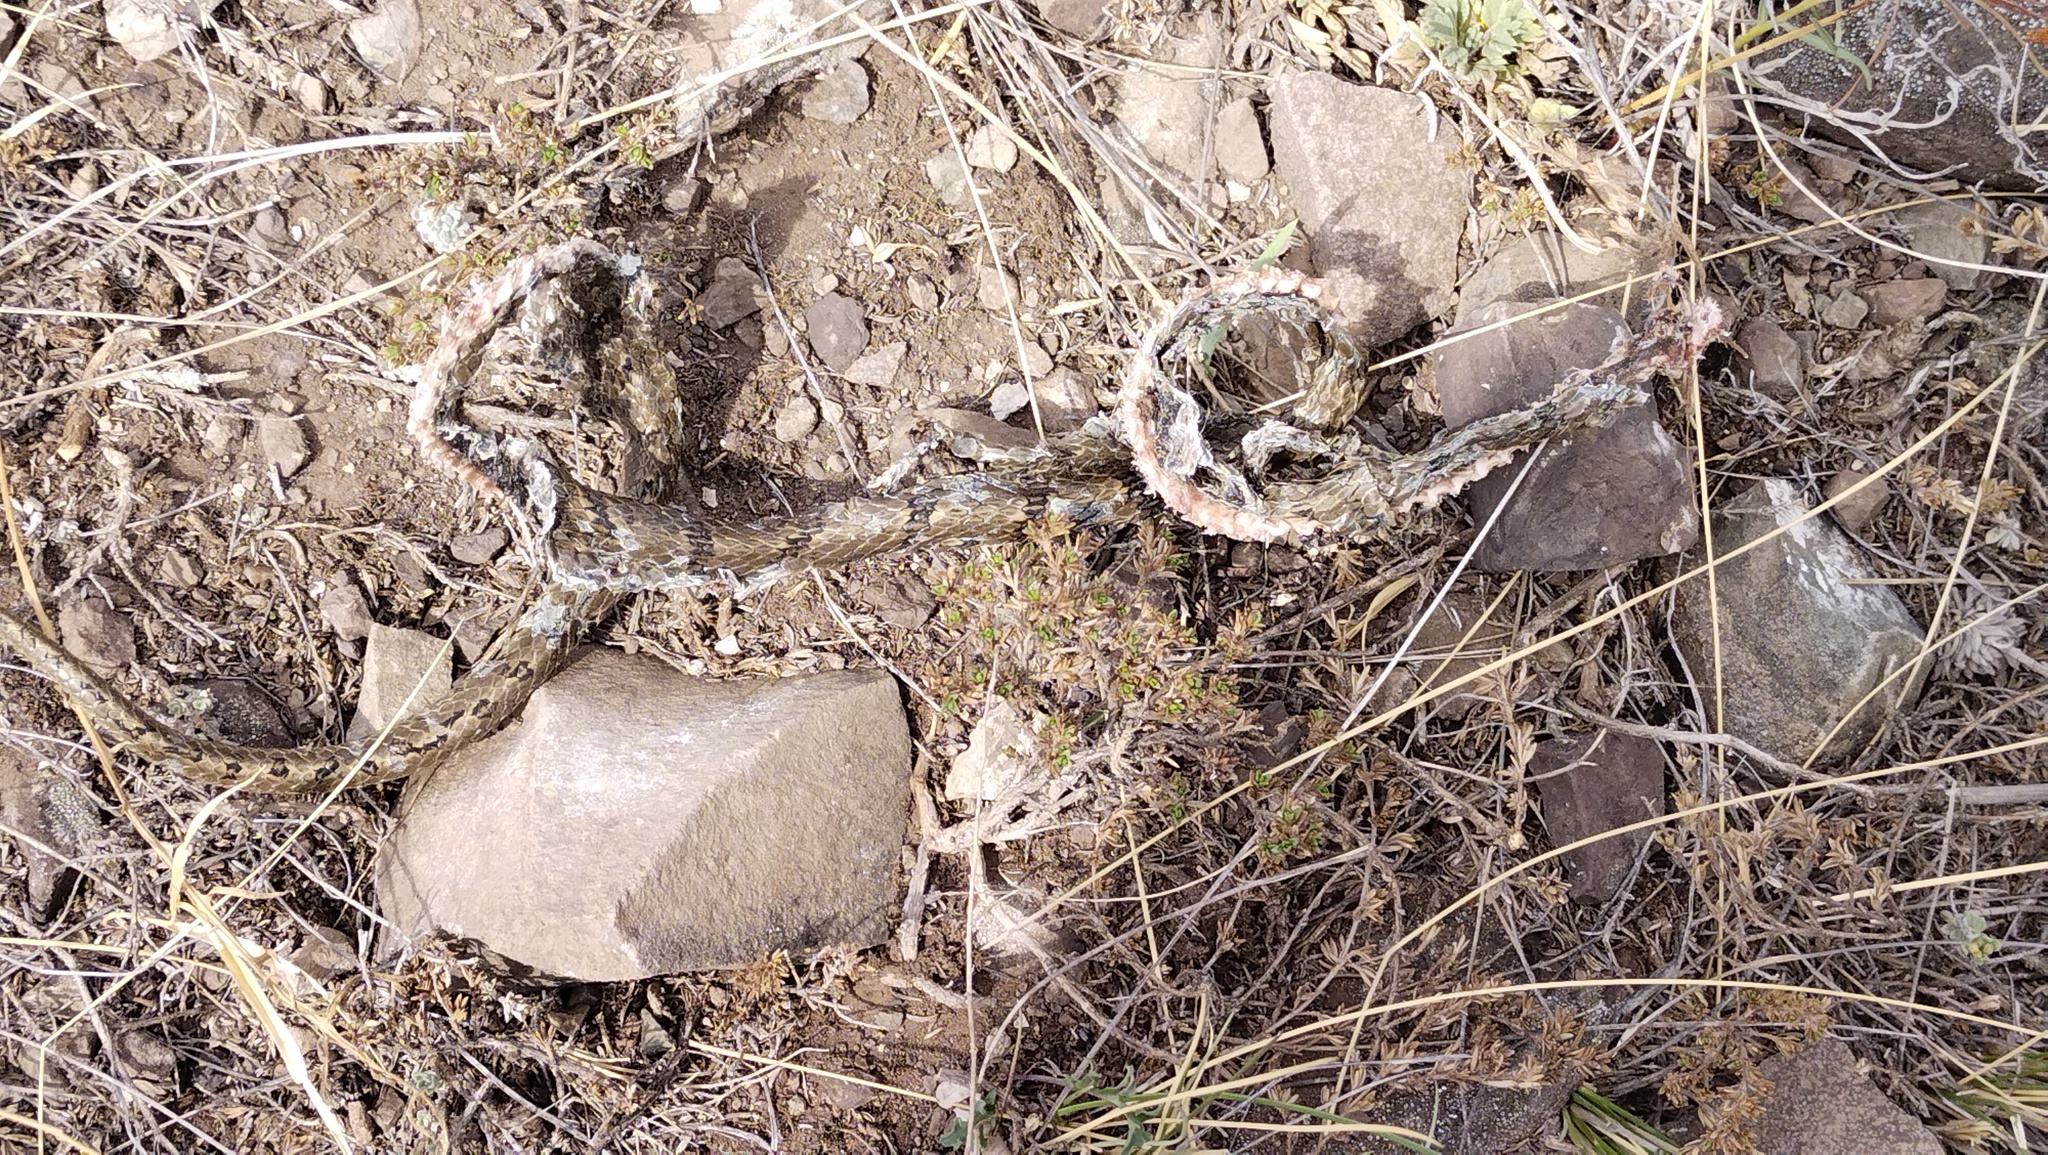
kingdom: Animalia
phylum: Chordata
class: Squamata
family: Colubridae
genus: Elaphe
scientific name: Elaphe dione
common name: Dione ratsnake
